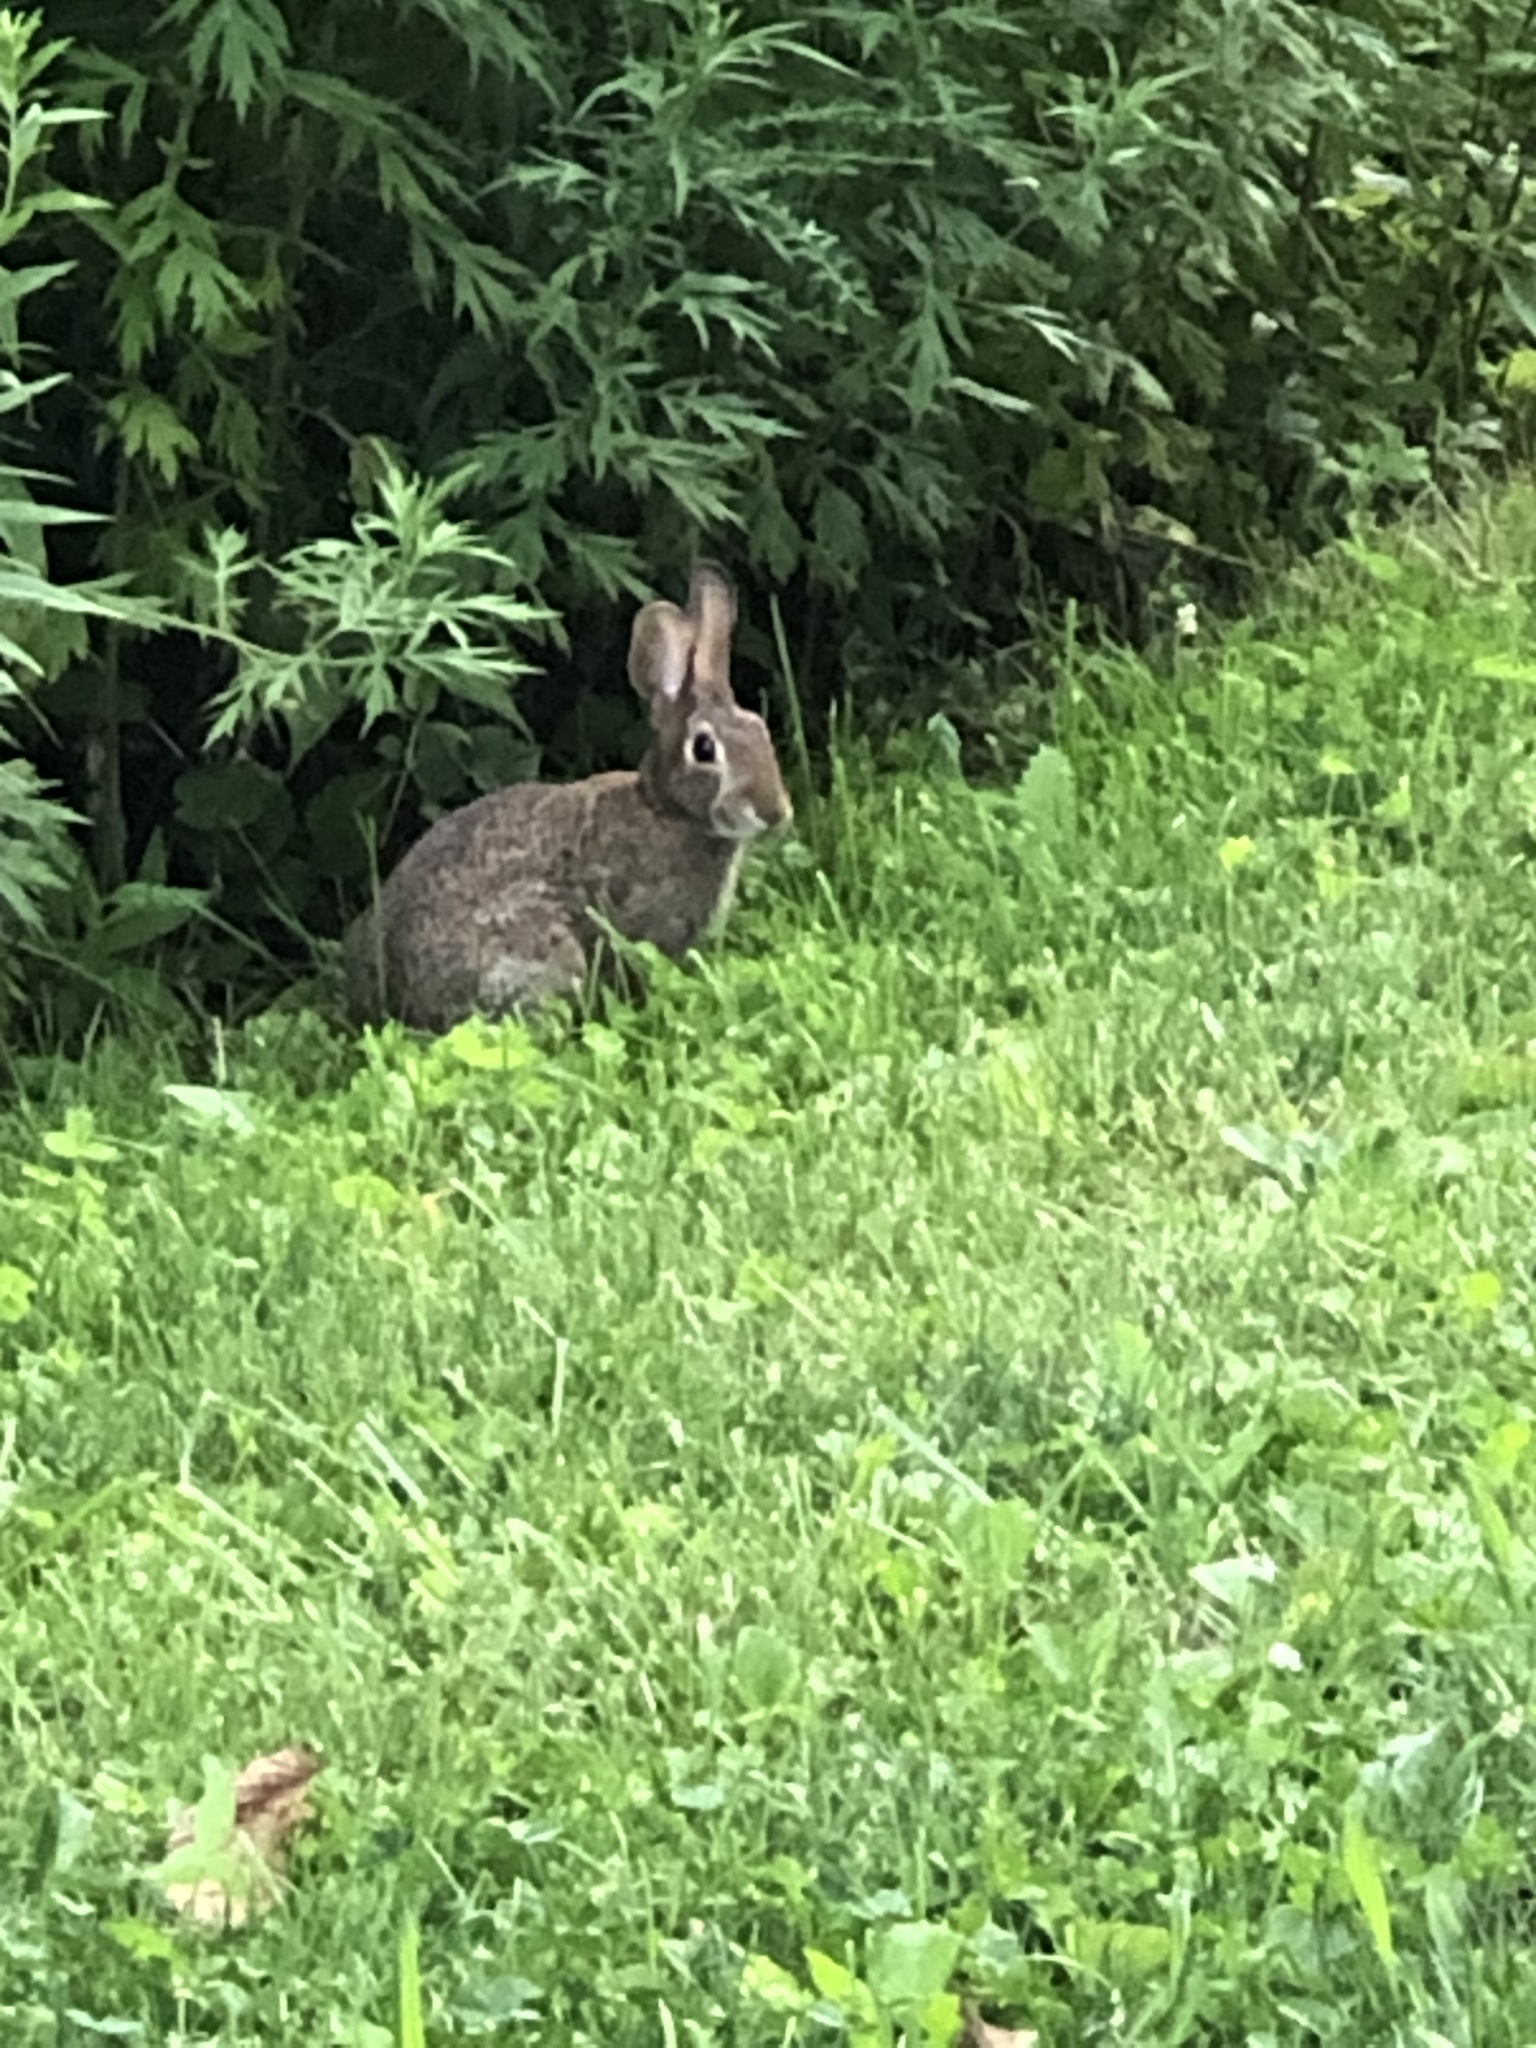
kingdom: Animalia
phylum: Chordata
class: Mammalia
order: Lagomorpha
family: Leporidae
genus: Sylvilagus
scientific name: Sylvilagus floridanus
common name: Eastern cottontail
